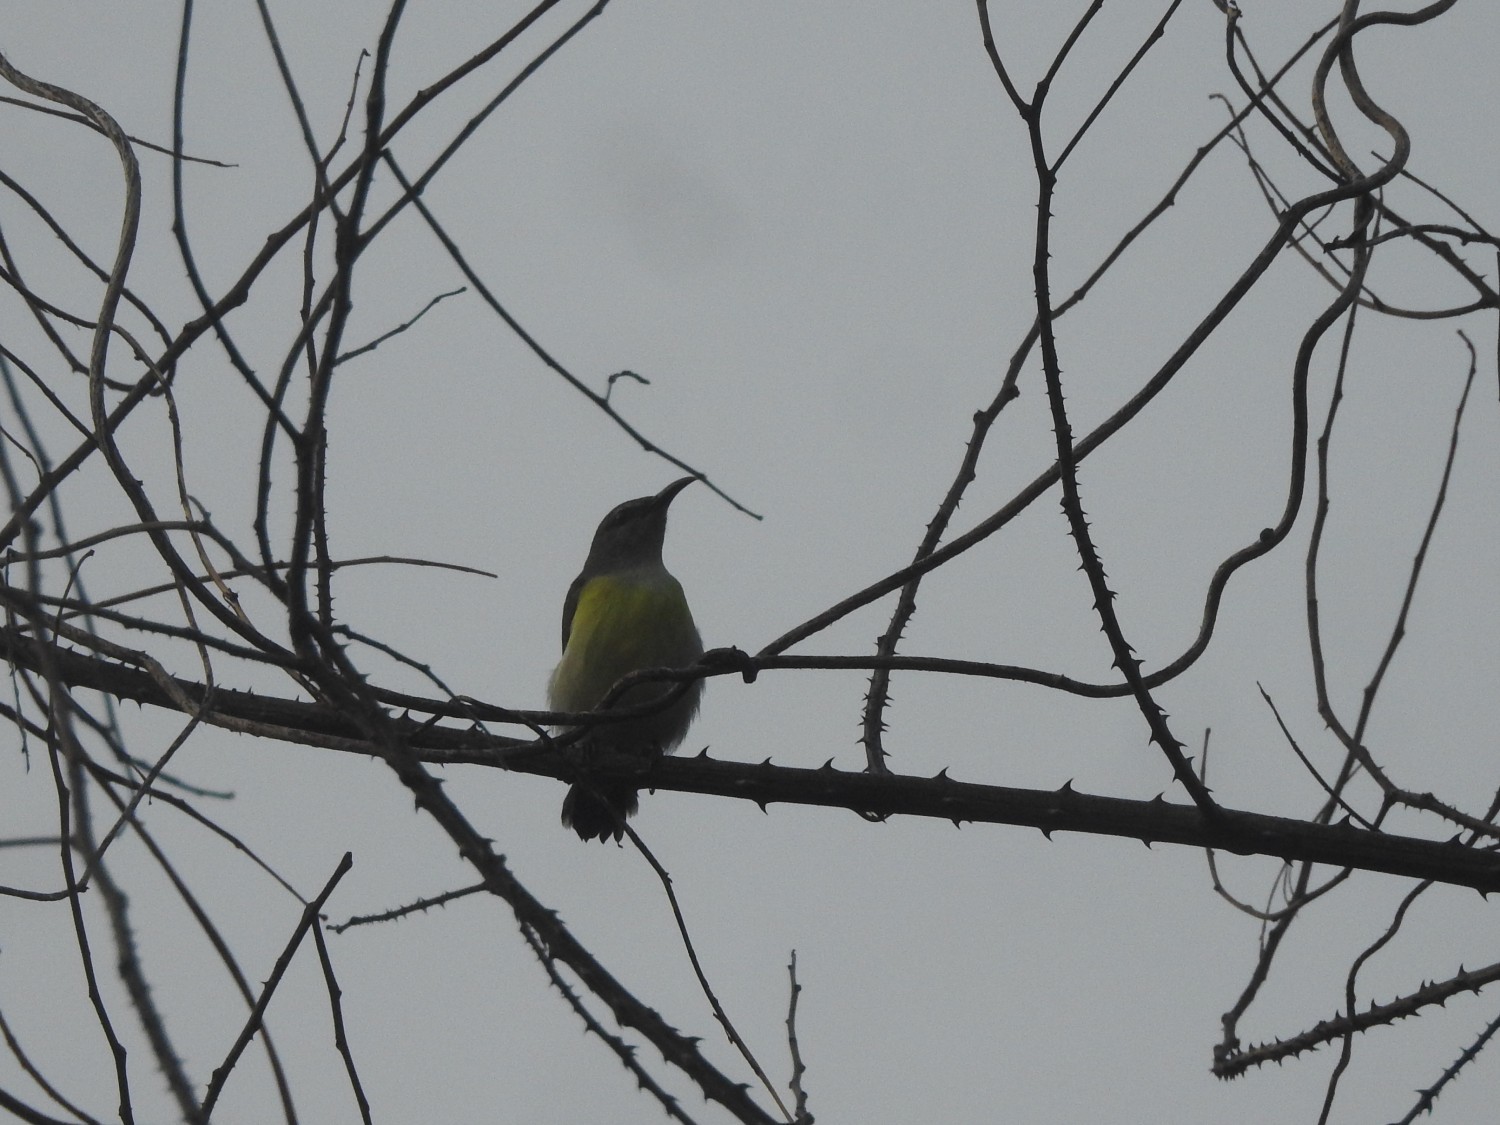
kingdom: Animalia
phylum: Chordata
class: Aves
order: Passeriformes
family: Nectariniidae
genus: Leptocoma
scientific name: Leptocoma zeylonica
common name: Purple-rumped sunbird
